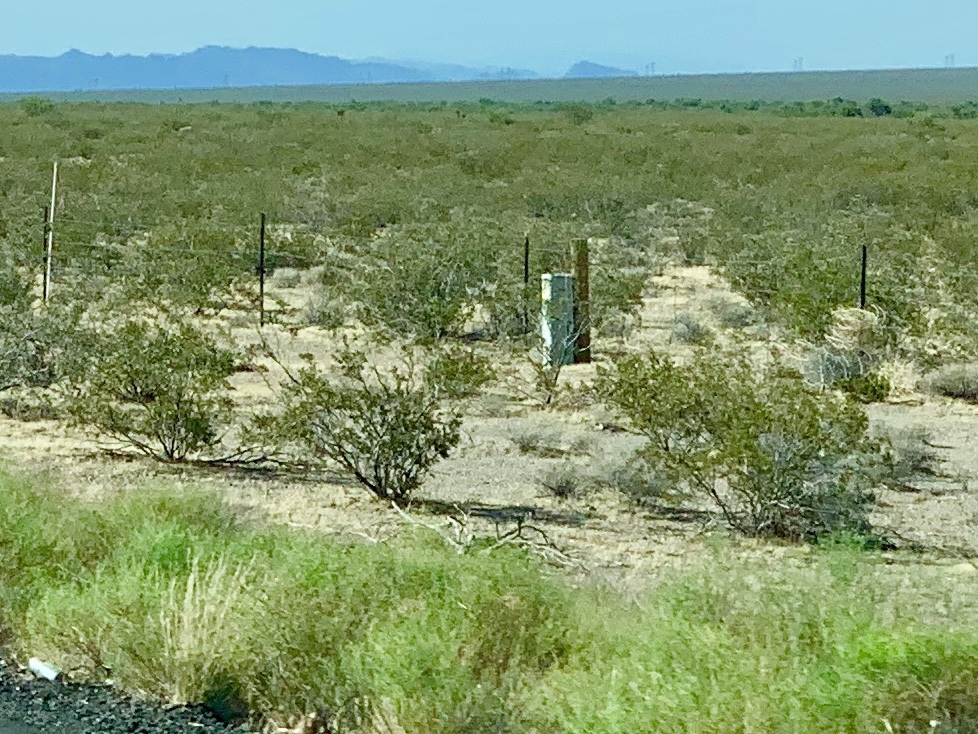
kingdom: Plantae
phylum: Tracheophyta
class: Magnoliopsida
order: Zygophyllales
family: Zygophyllaceae
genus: Larrea
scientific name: Larrea tridentata
